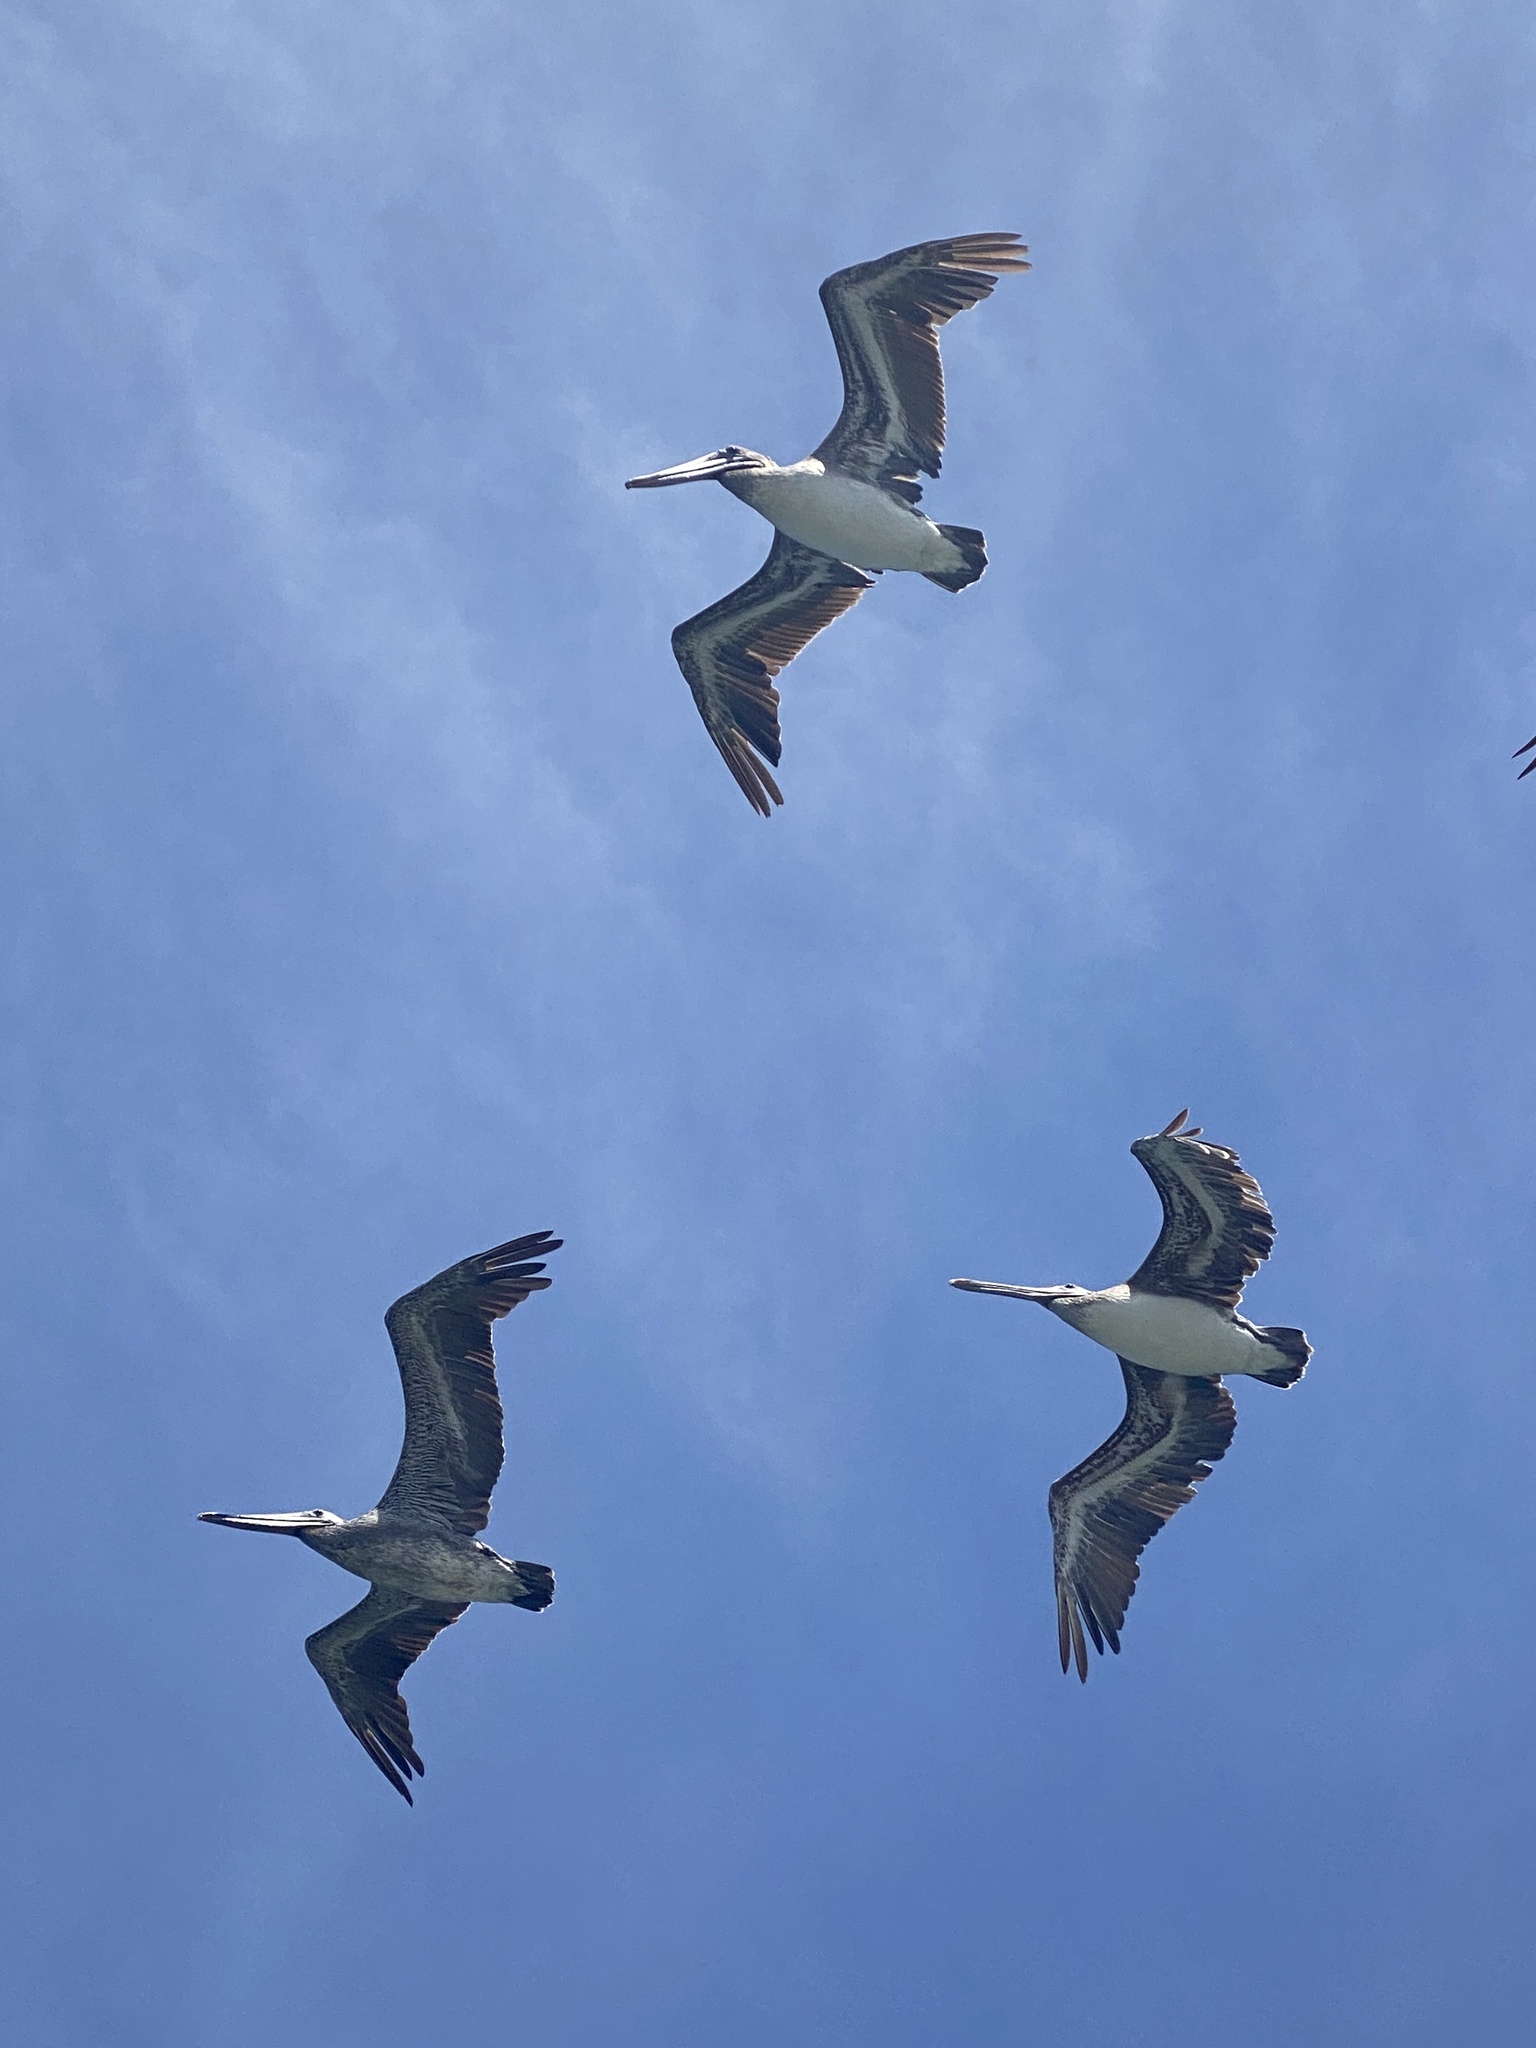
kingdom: Animalia
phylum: Chordata
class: Aves
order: Pelecaniformes
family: Pelecanidae
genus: Pelecanus
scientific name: Pelecanus occidentalis
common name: Brown pelican
